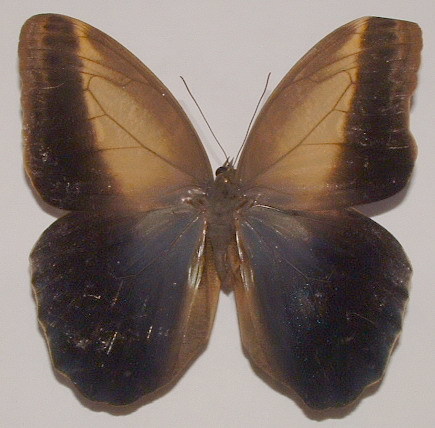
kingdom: Animalia
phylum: Arthropoda
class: Insecta
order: Lepidoptera
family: Nymphalidae
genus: Caligo
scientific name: Caligo telamonius
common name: Pale owl-butterfly
